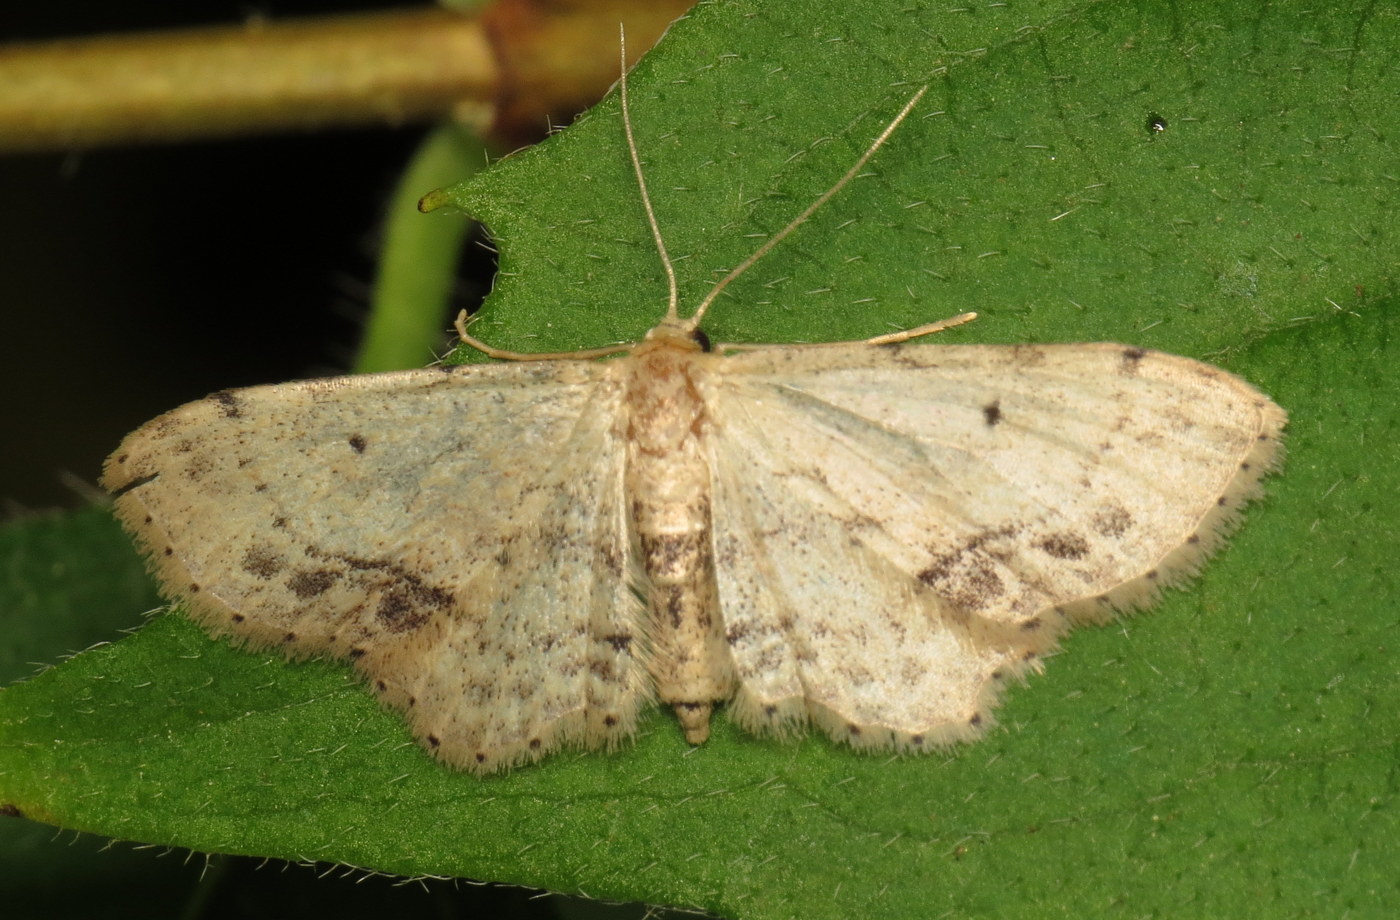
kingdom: Animalia
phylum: Arthropoda
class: Insecta
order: Lepidoptera
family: Geometridae
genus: Idaea
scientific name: Idaea dimidiata
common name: Single-dotted wave
